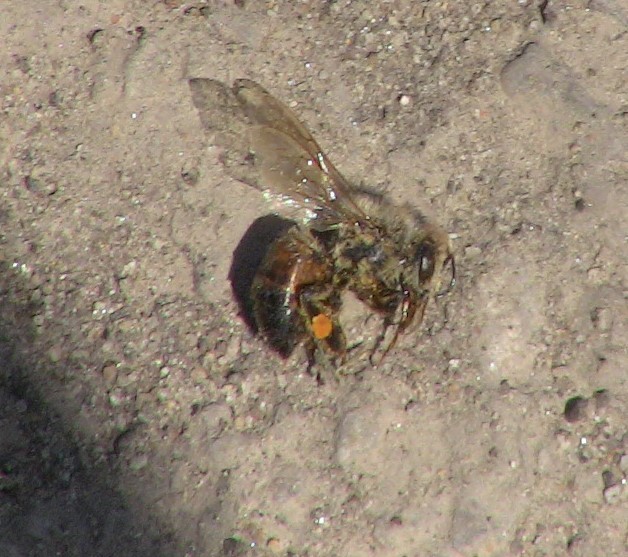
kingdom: Animalia
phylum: Arthropoda
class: Insecta
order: Hymenoptera
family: Apidae
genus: Apis
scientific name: Apis mellifera
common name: Honey bee
